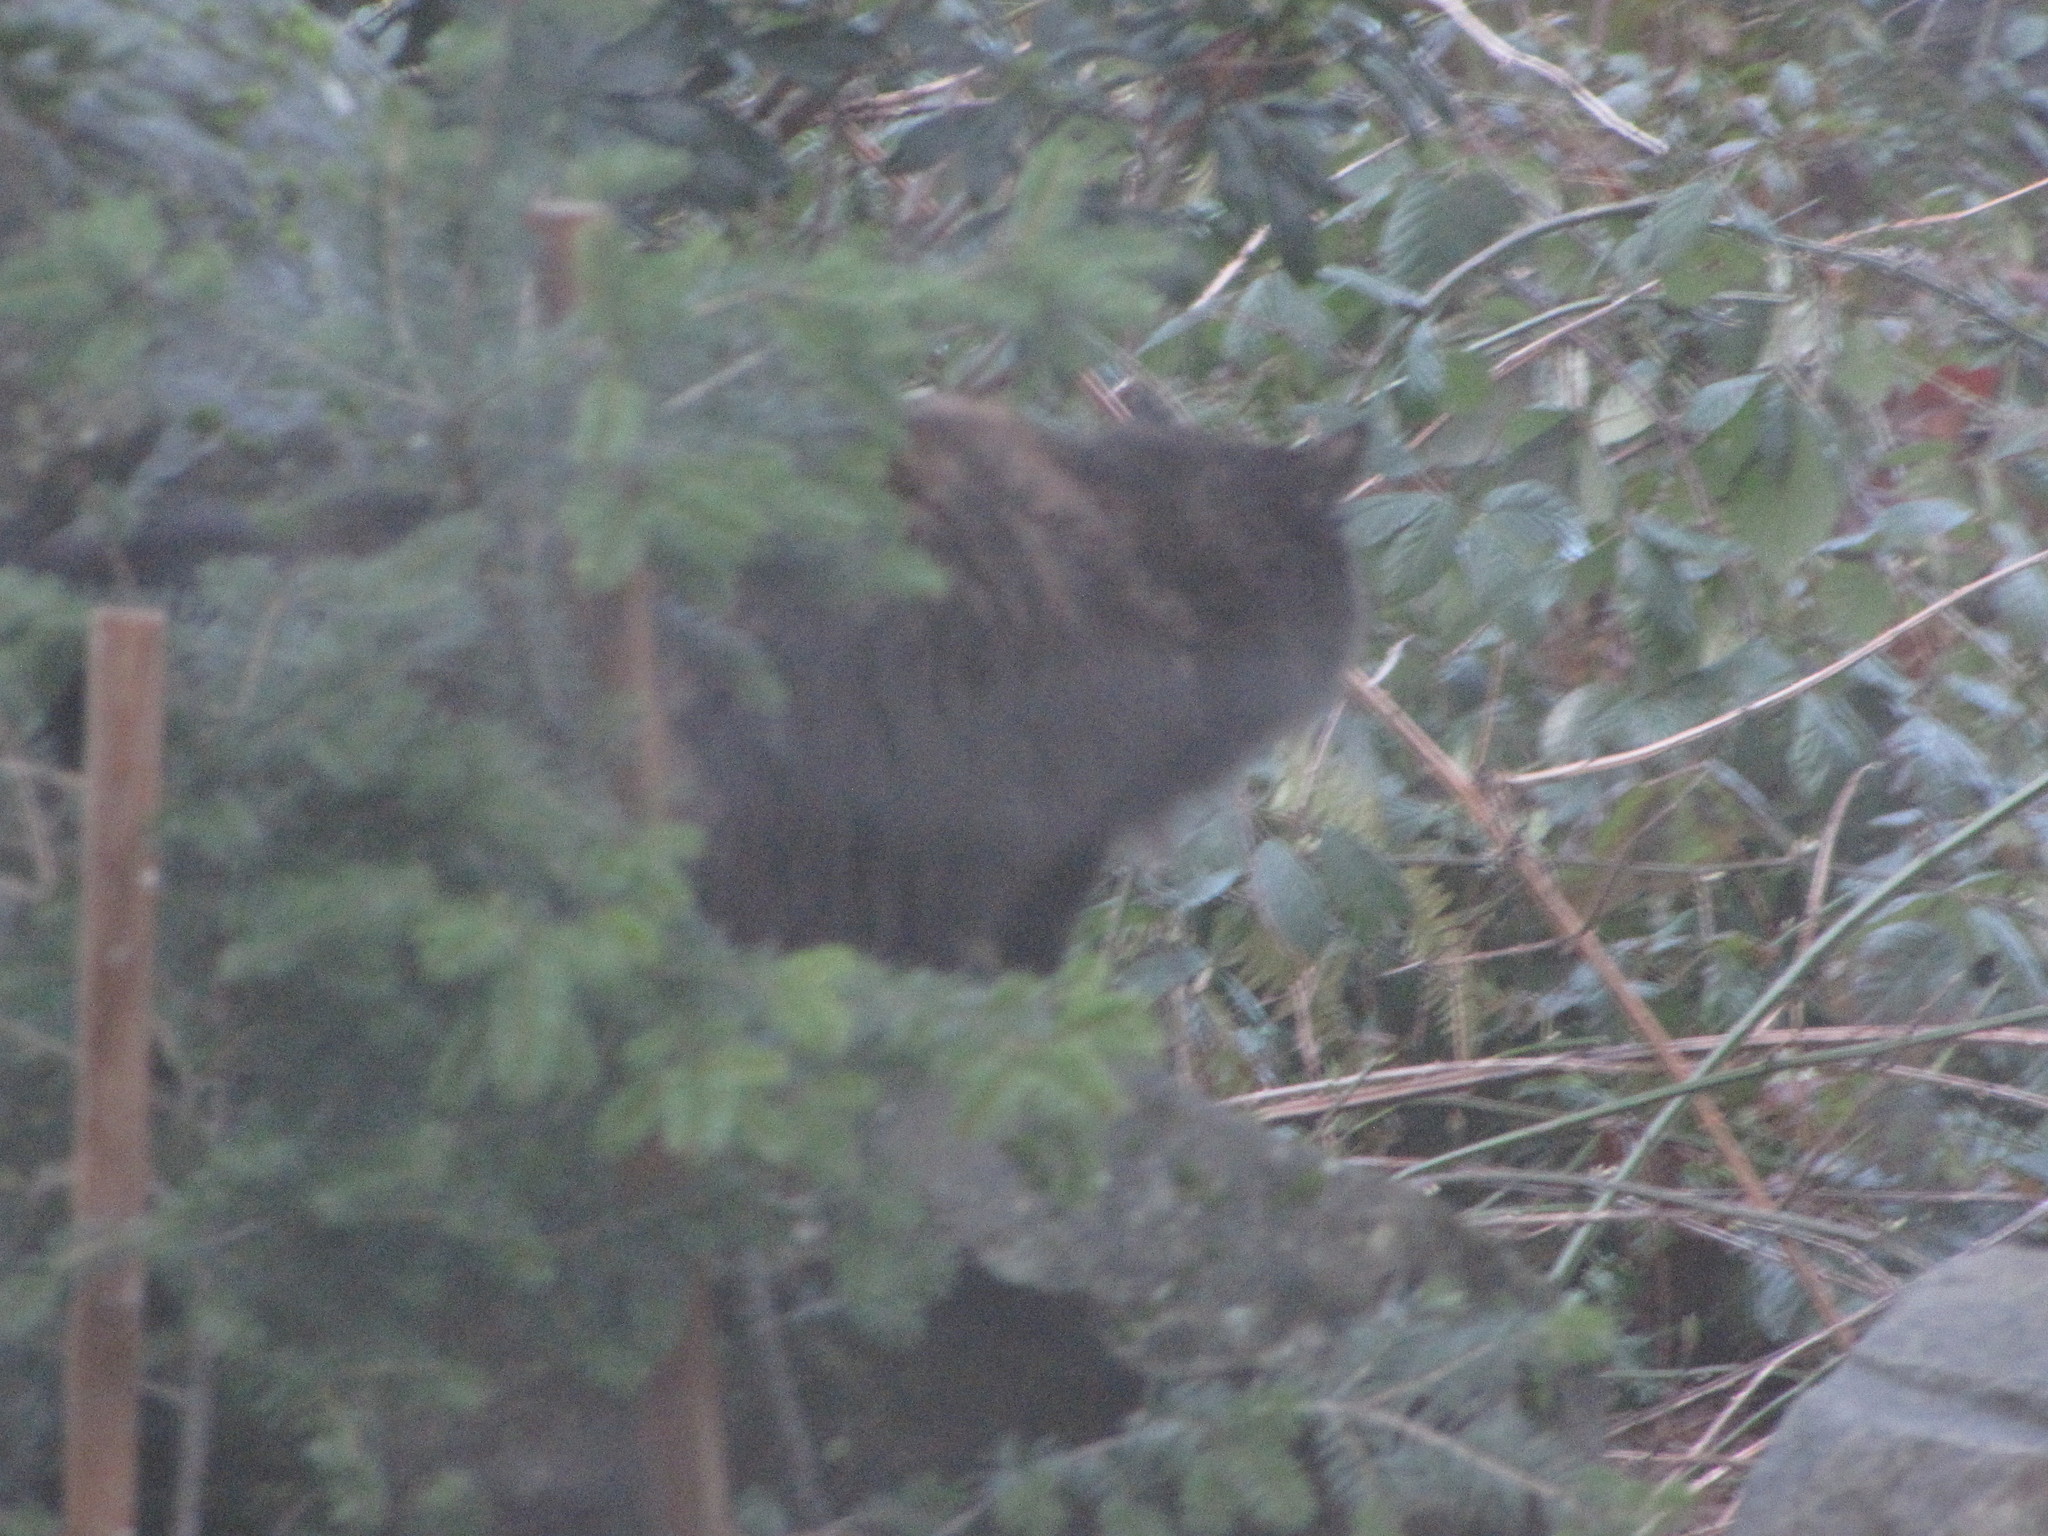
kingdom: Animalia
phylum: Chordata
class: Mammalia
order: Carnivora
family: Felidae
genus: Felis
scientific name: Felis catus
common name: Domestic cat
